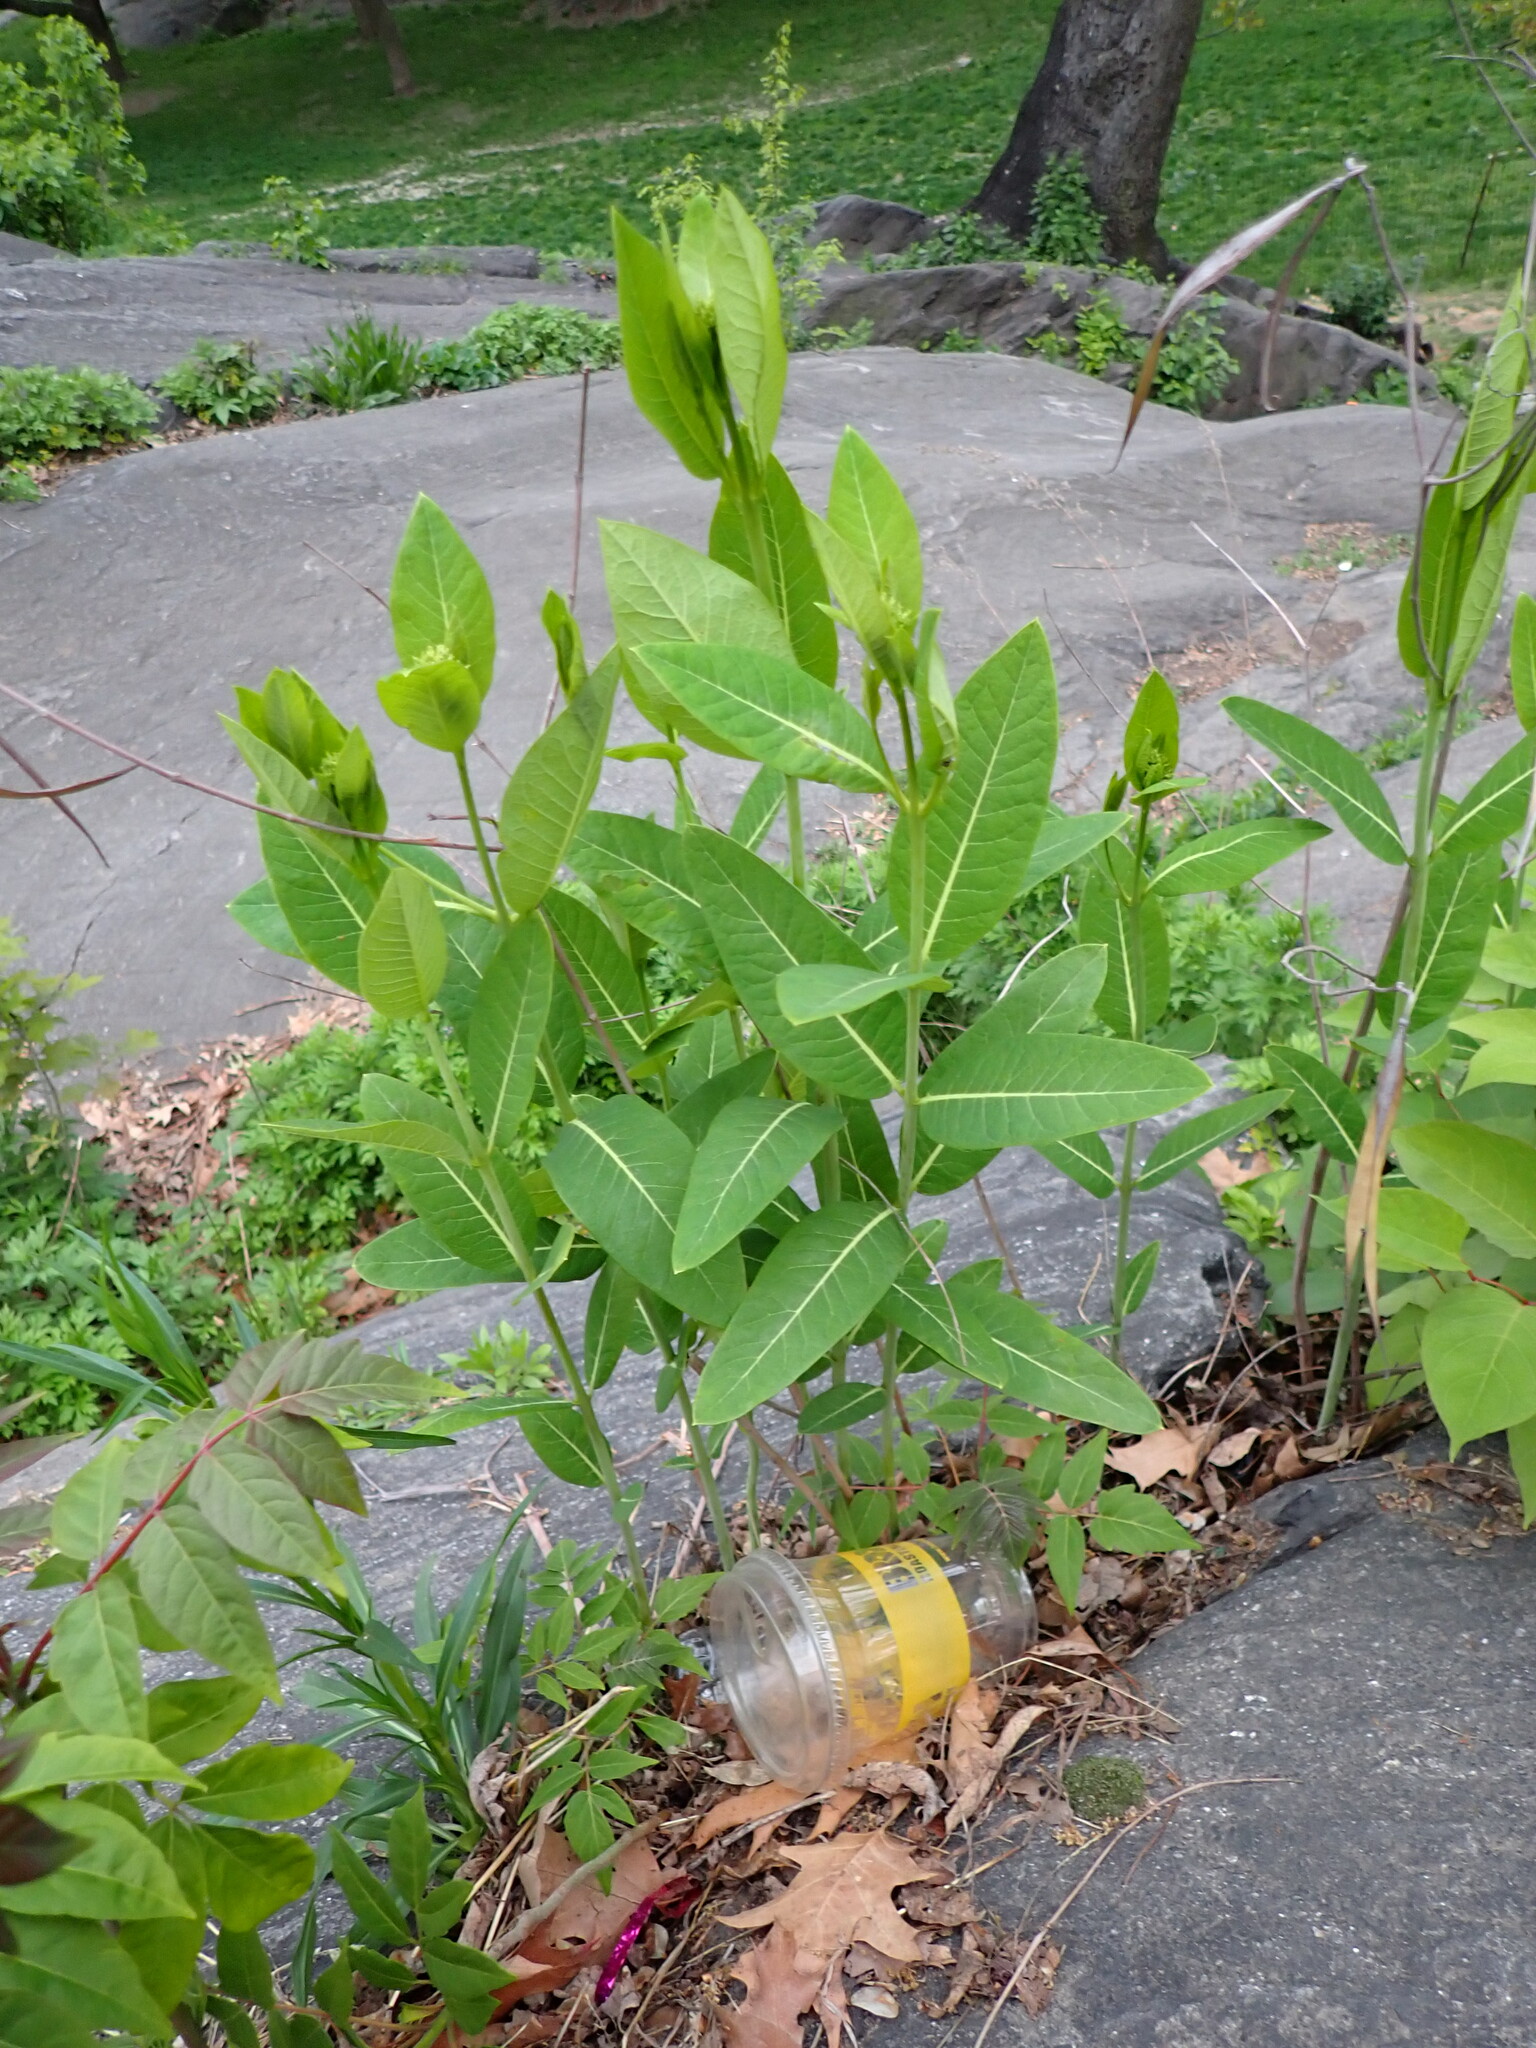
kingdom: Plantae
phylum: Tracheophyta
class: Magnoliopsida
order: Gentianales
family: Apocynaceae
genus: Apocynum
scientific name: Apocynum cannabinum
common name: Hemp dogbane
